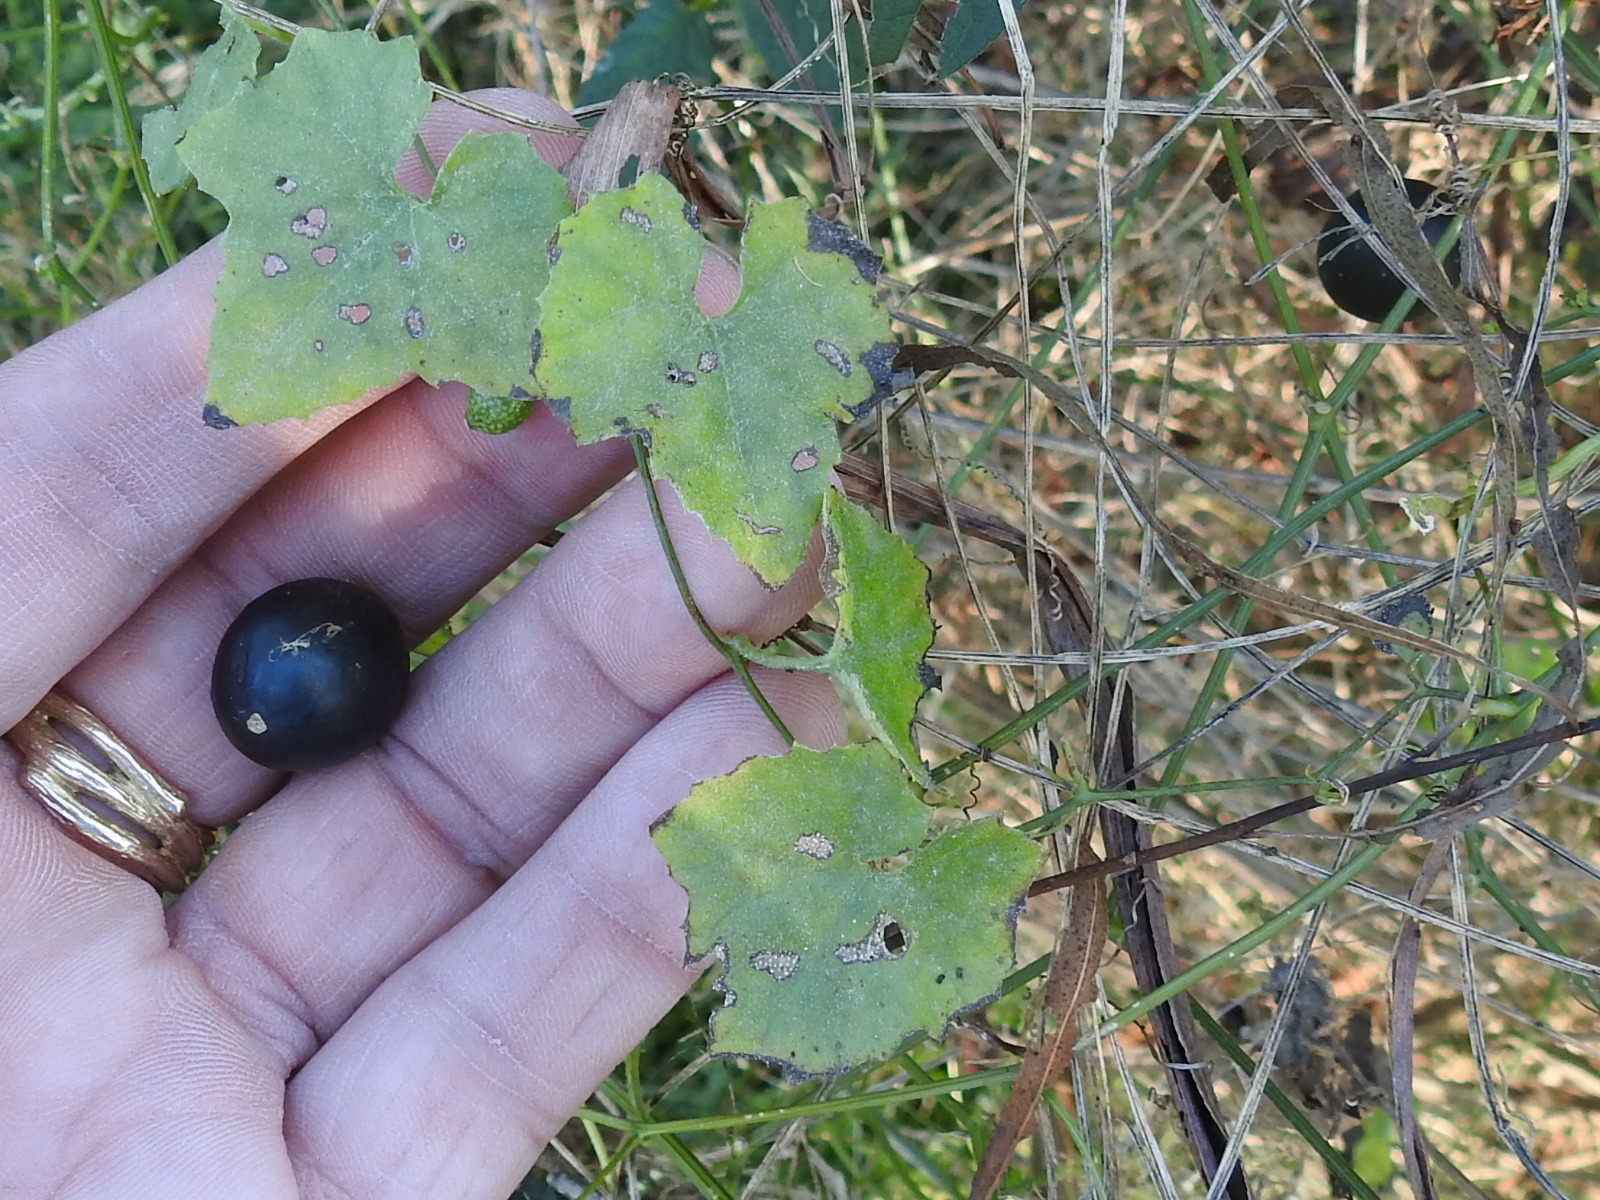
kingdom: Plantae
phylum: Tracheophyta
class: Magnoliopsida
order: Cucurbitales
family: Cucurbitaceae
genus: Melothria
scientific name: Melothria pendula
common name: Creeping-cucumber
